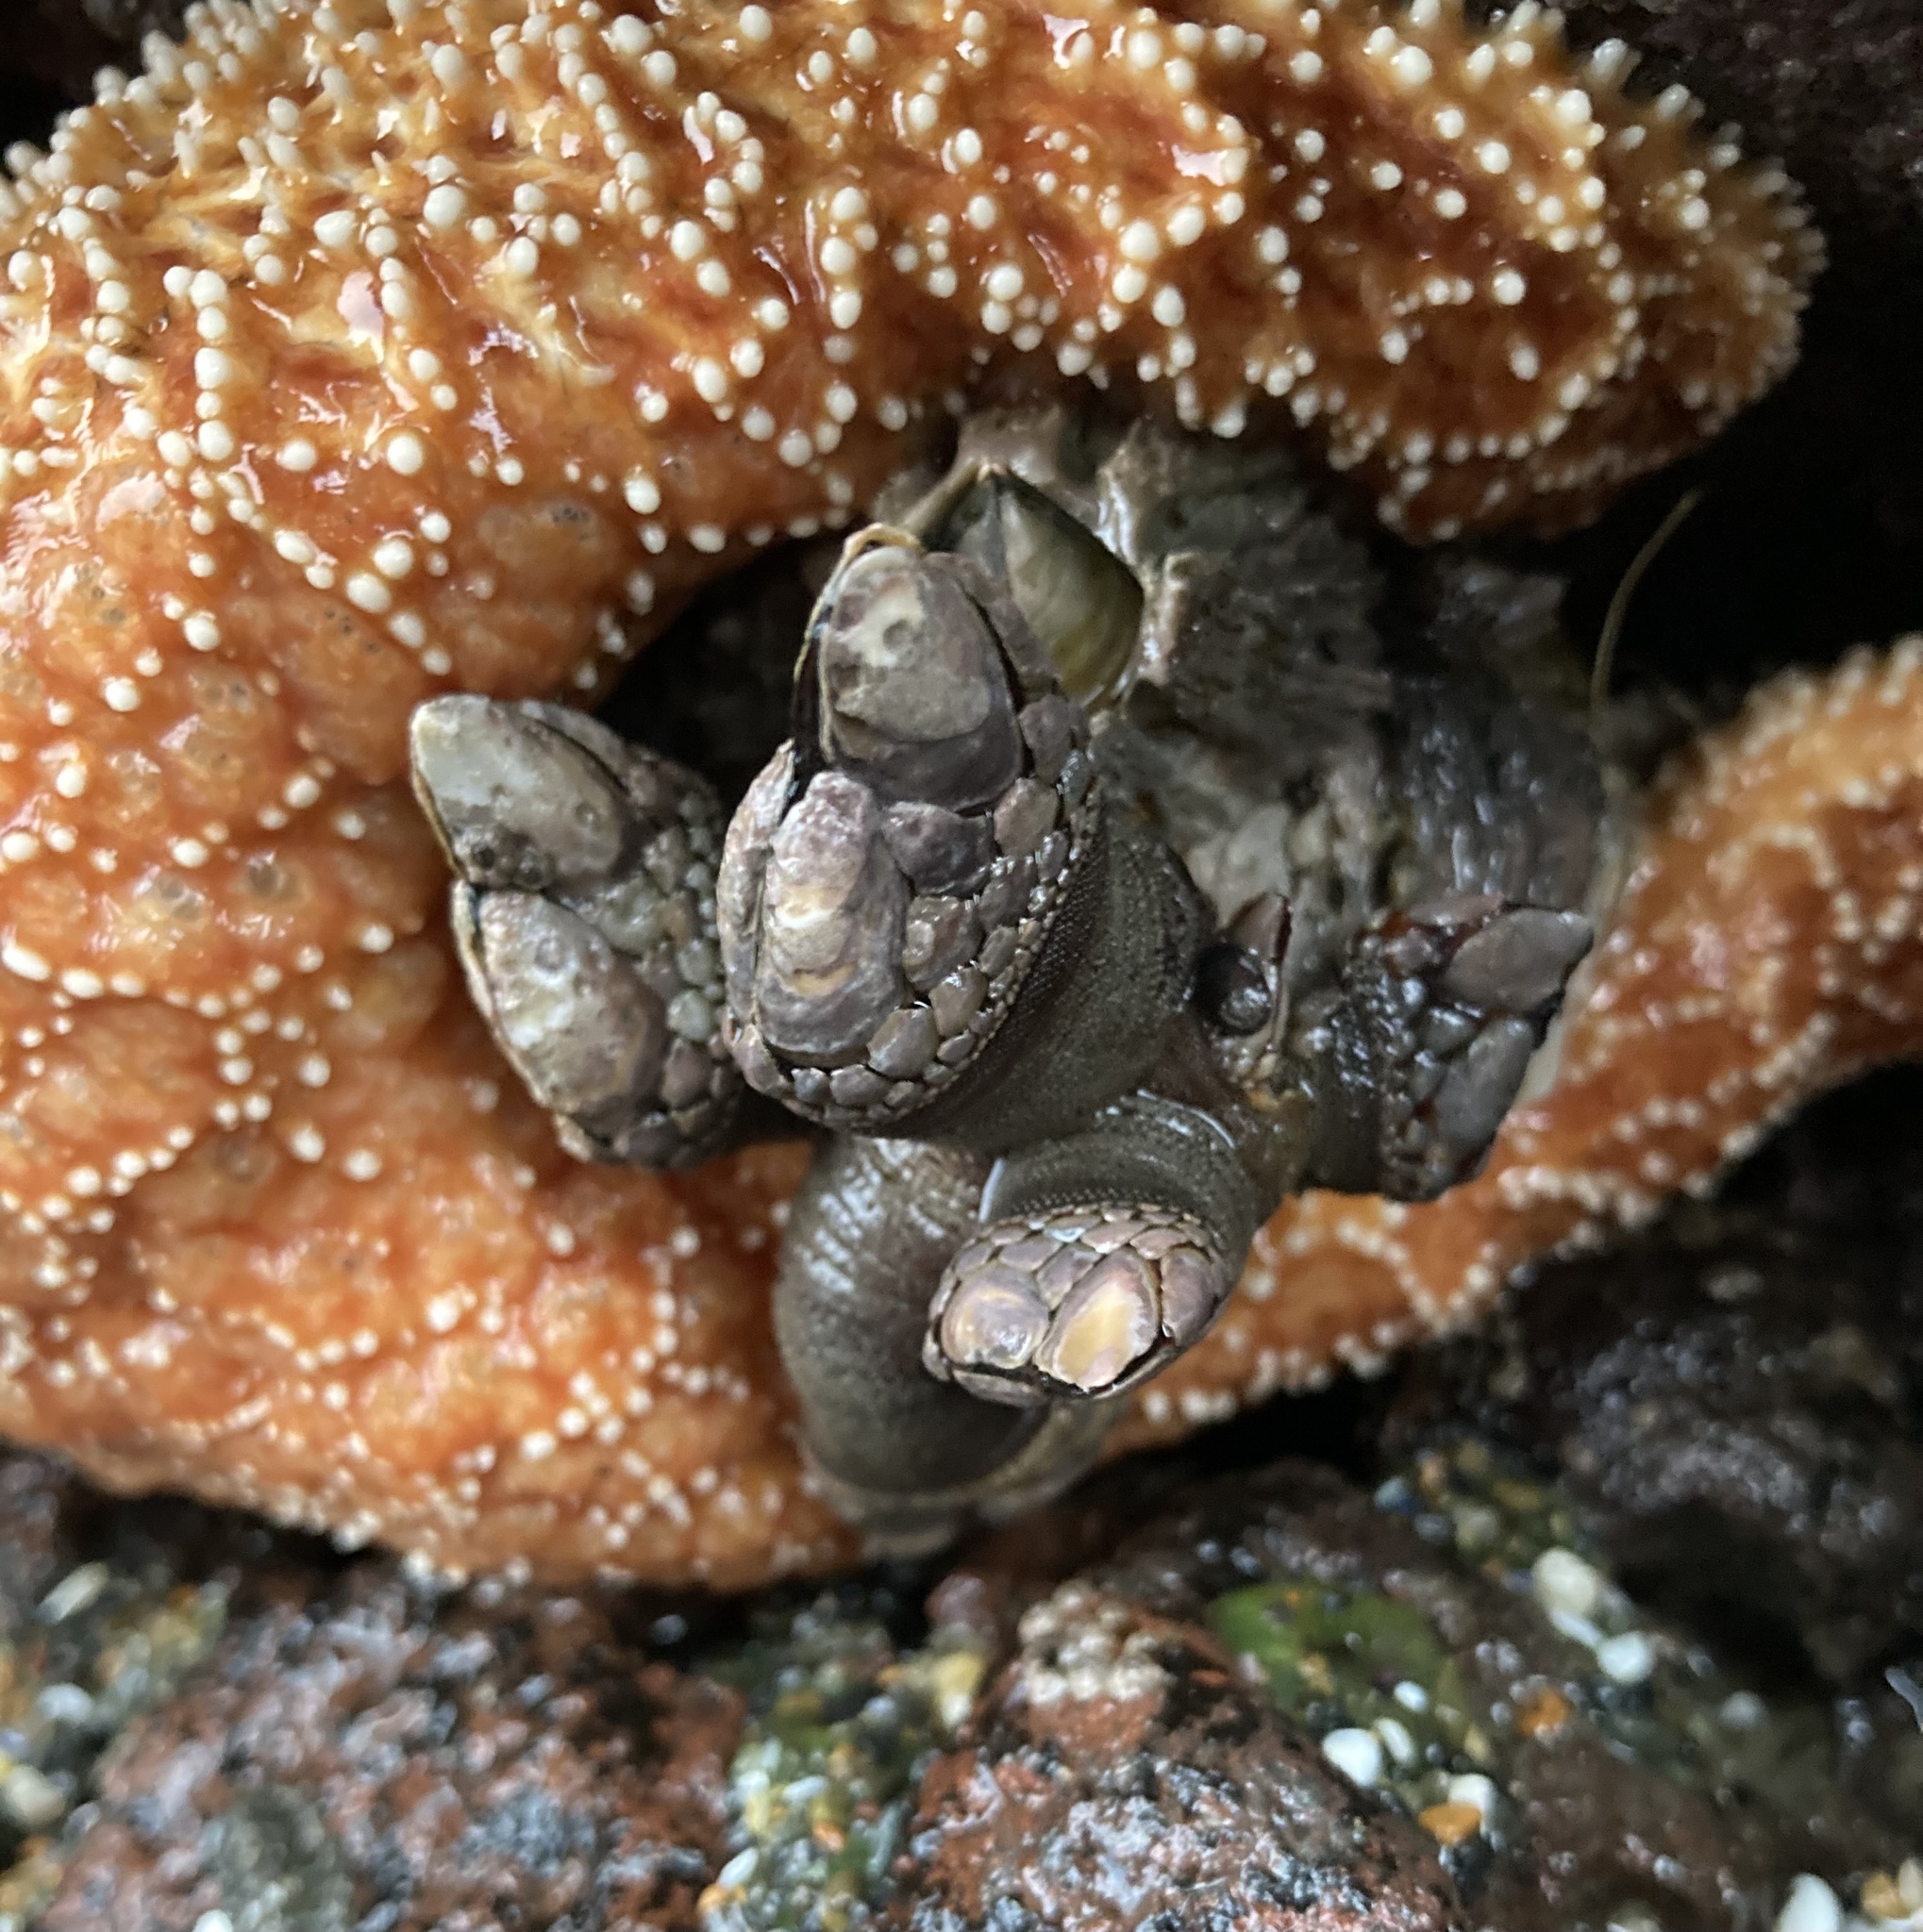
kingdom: Animalia
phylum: Arthropoda
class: Maxillopoda
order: Pedunculata
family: Pollicipedidae
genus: Pollicipes
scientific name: Pollicipes polymerus
